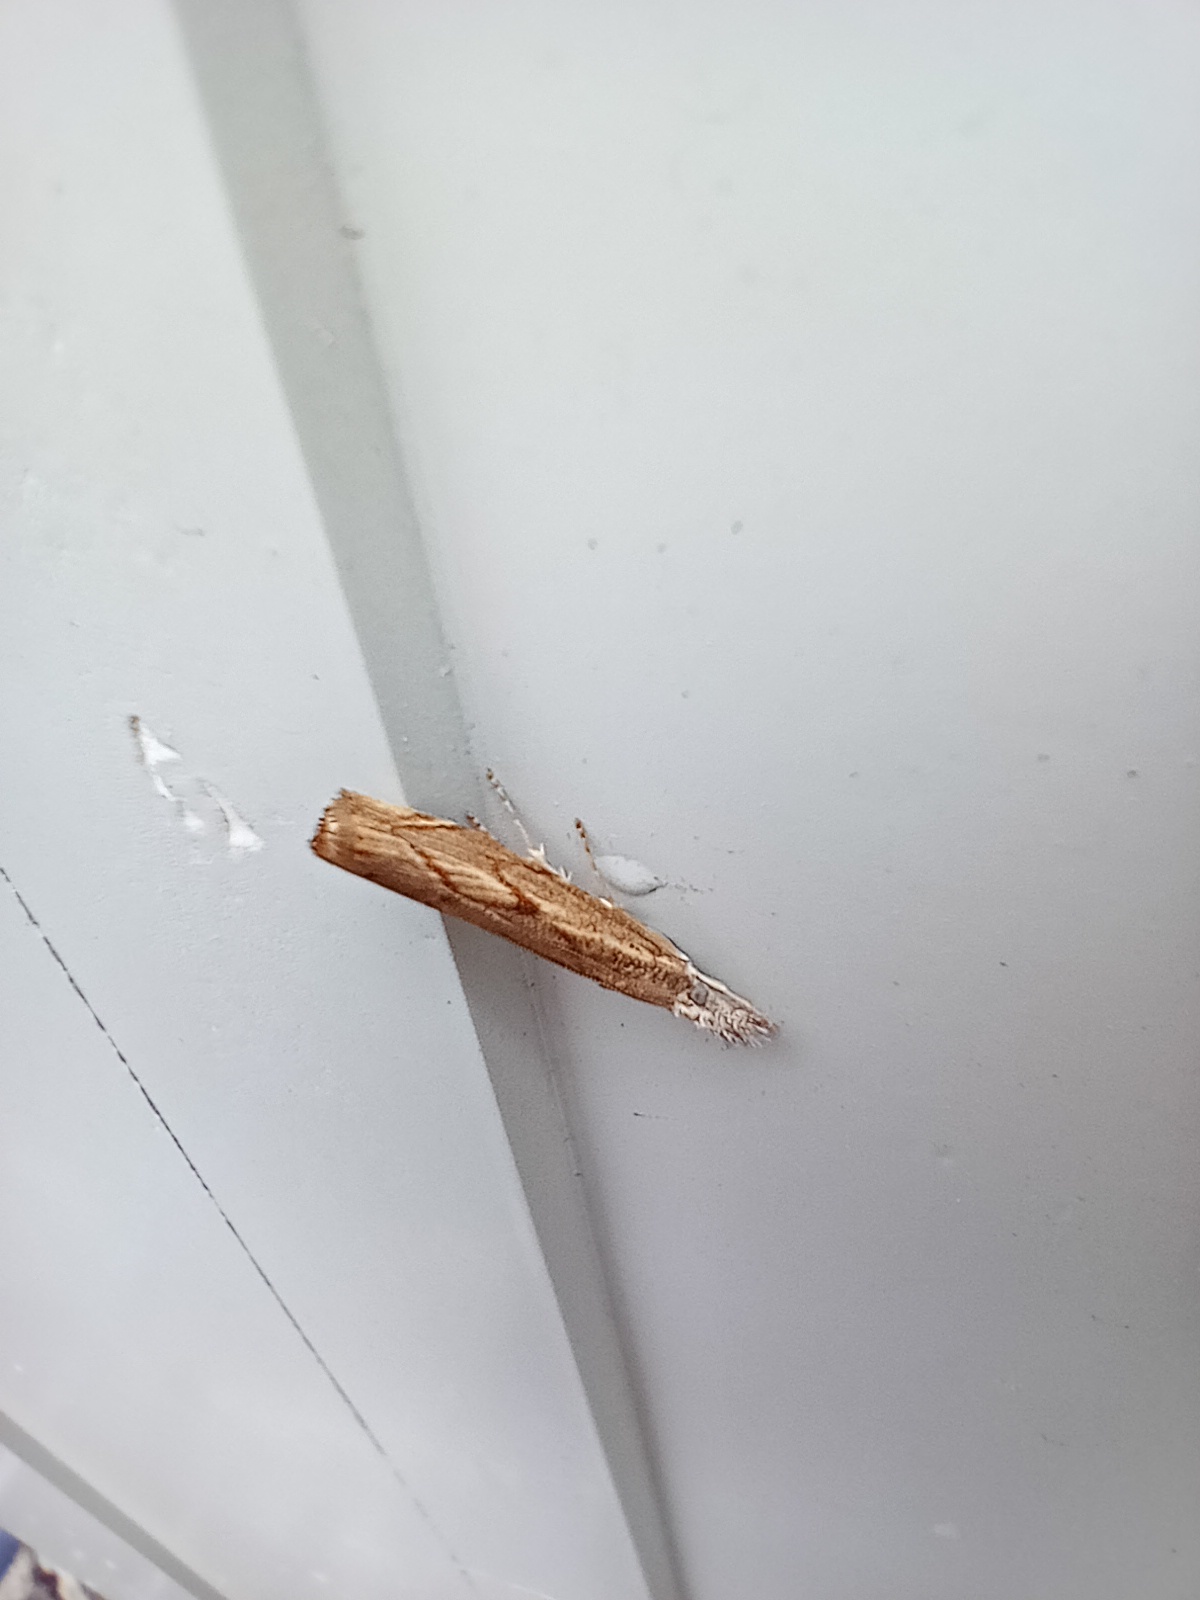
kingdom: Animalia
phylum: Arthropoda
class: Insecta
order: Lepidoptera
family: Crambidae
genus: Agriphila
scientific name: Agriphila geniculea
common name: Elbow-stripe grass-veneer
